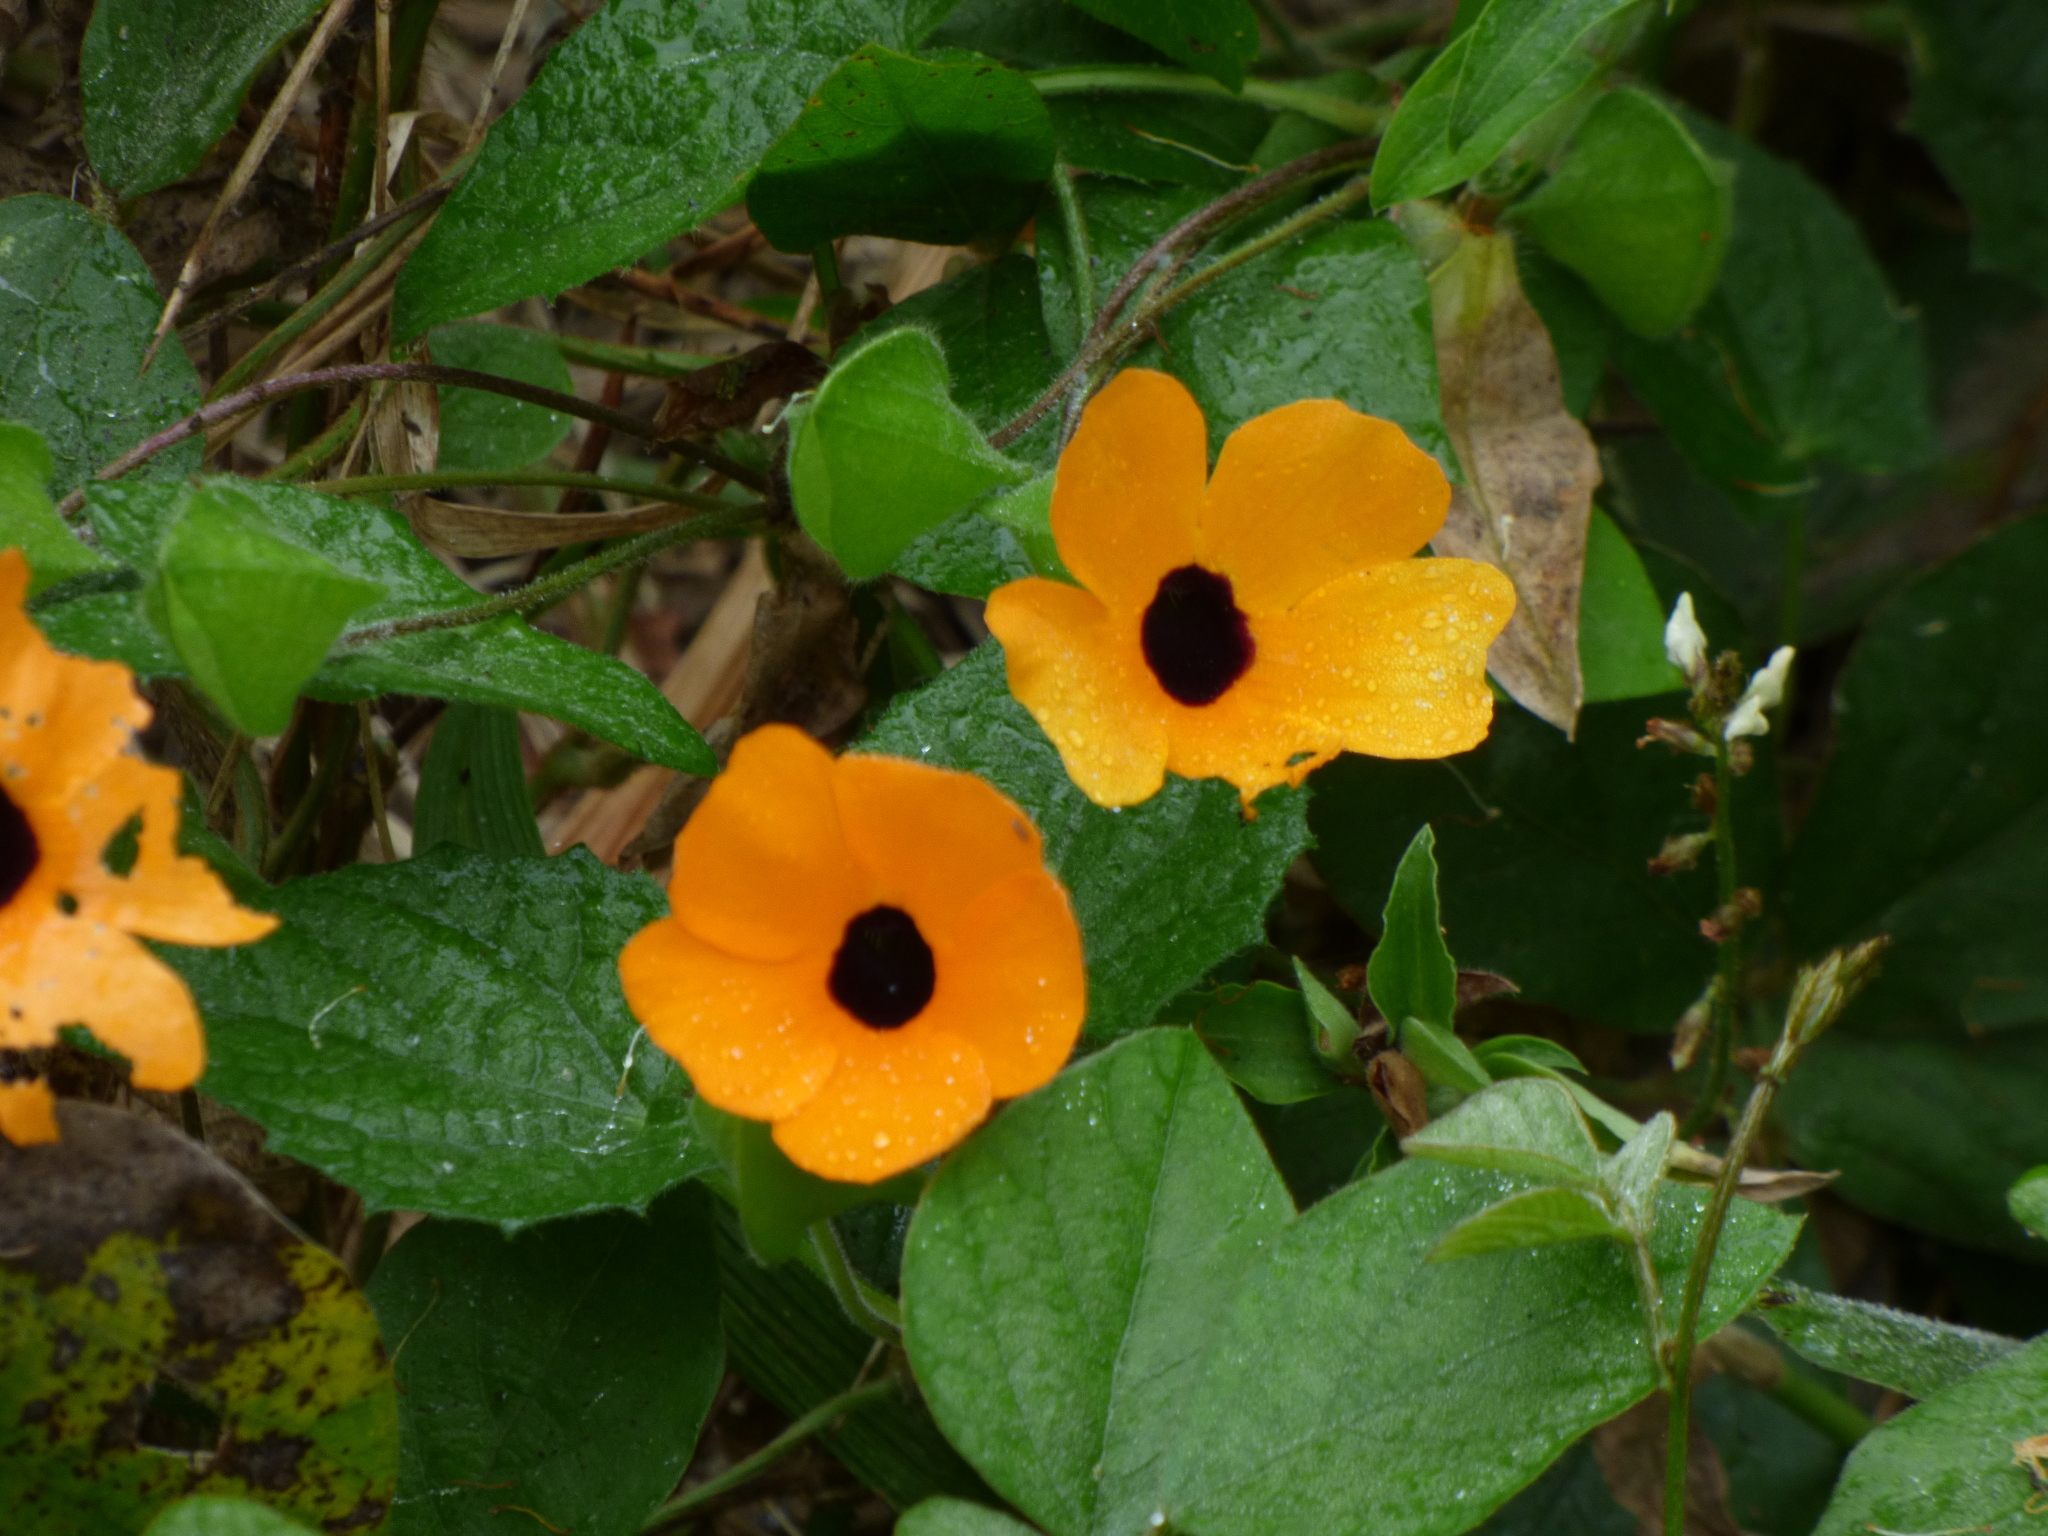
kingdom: Plantae
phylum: Tracheophyta
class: Magnoliopsida
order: Lamiales
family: Acanthaceae
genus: Thunbergia
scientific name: Thunbergia alata
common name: Blackeyed susan vine
